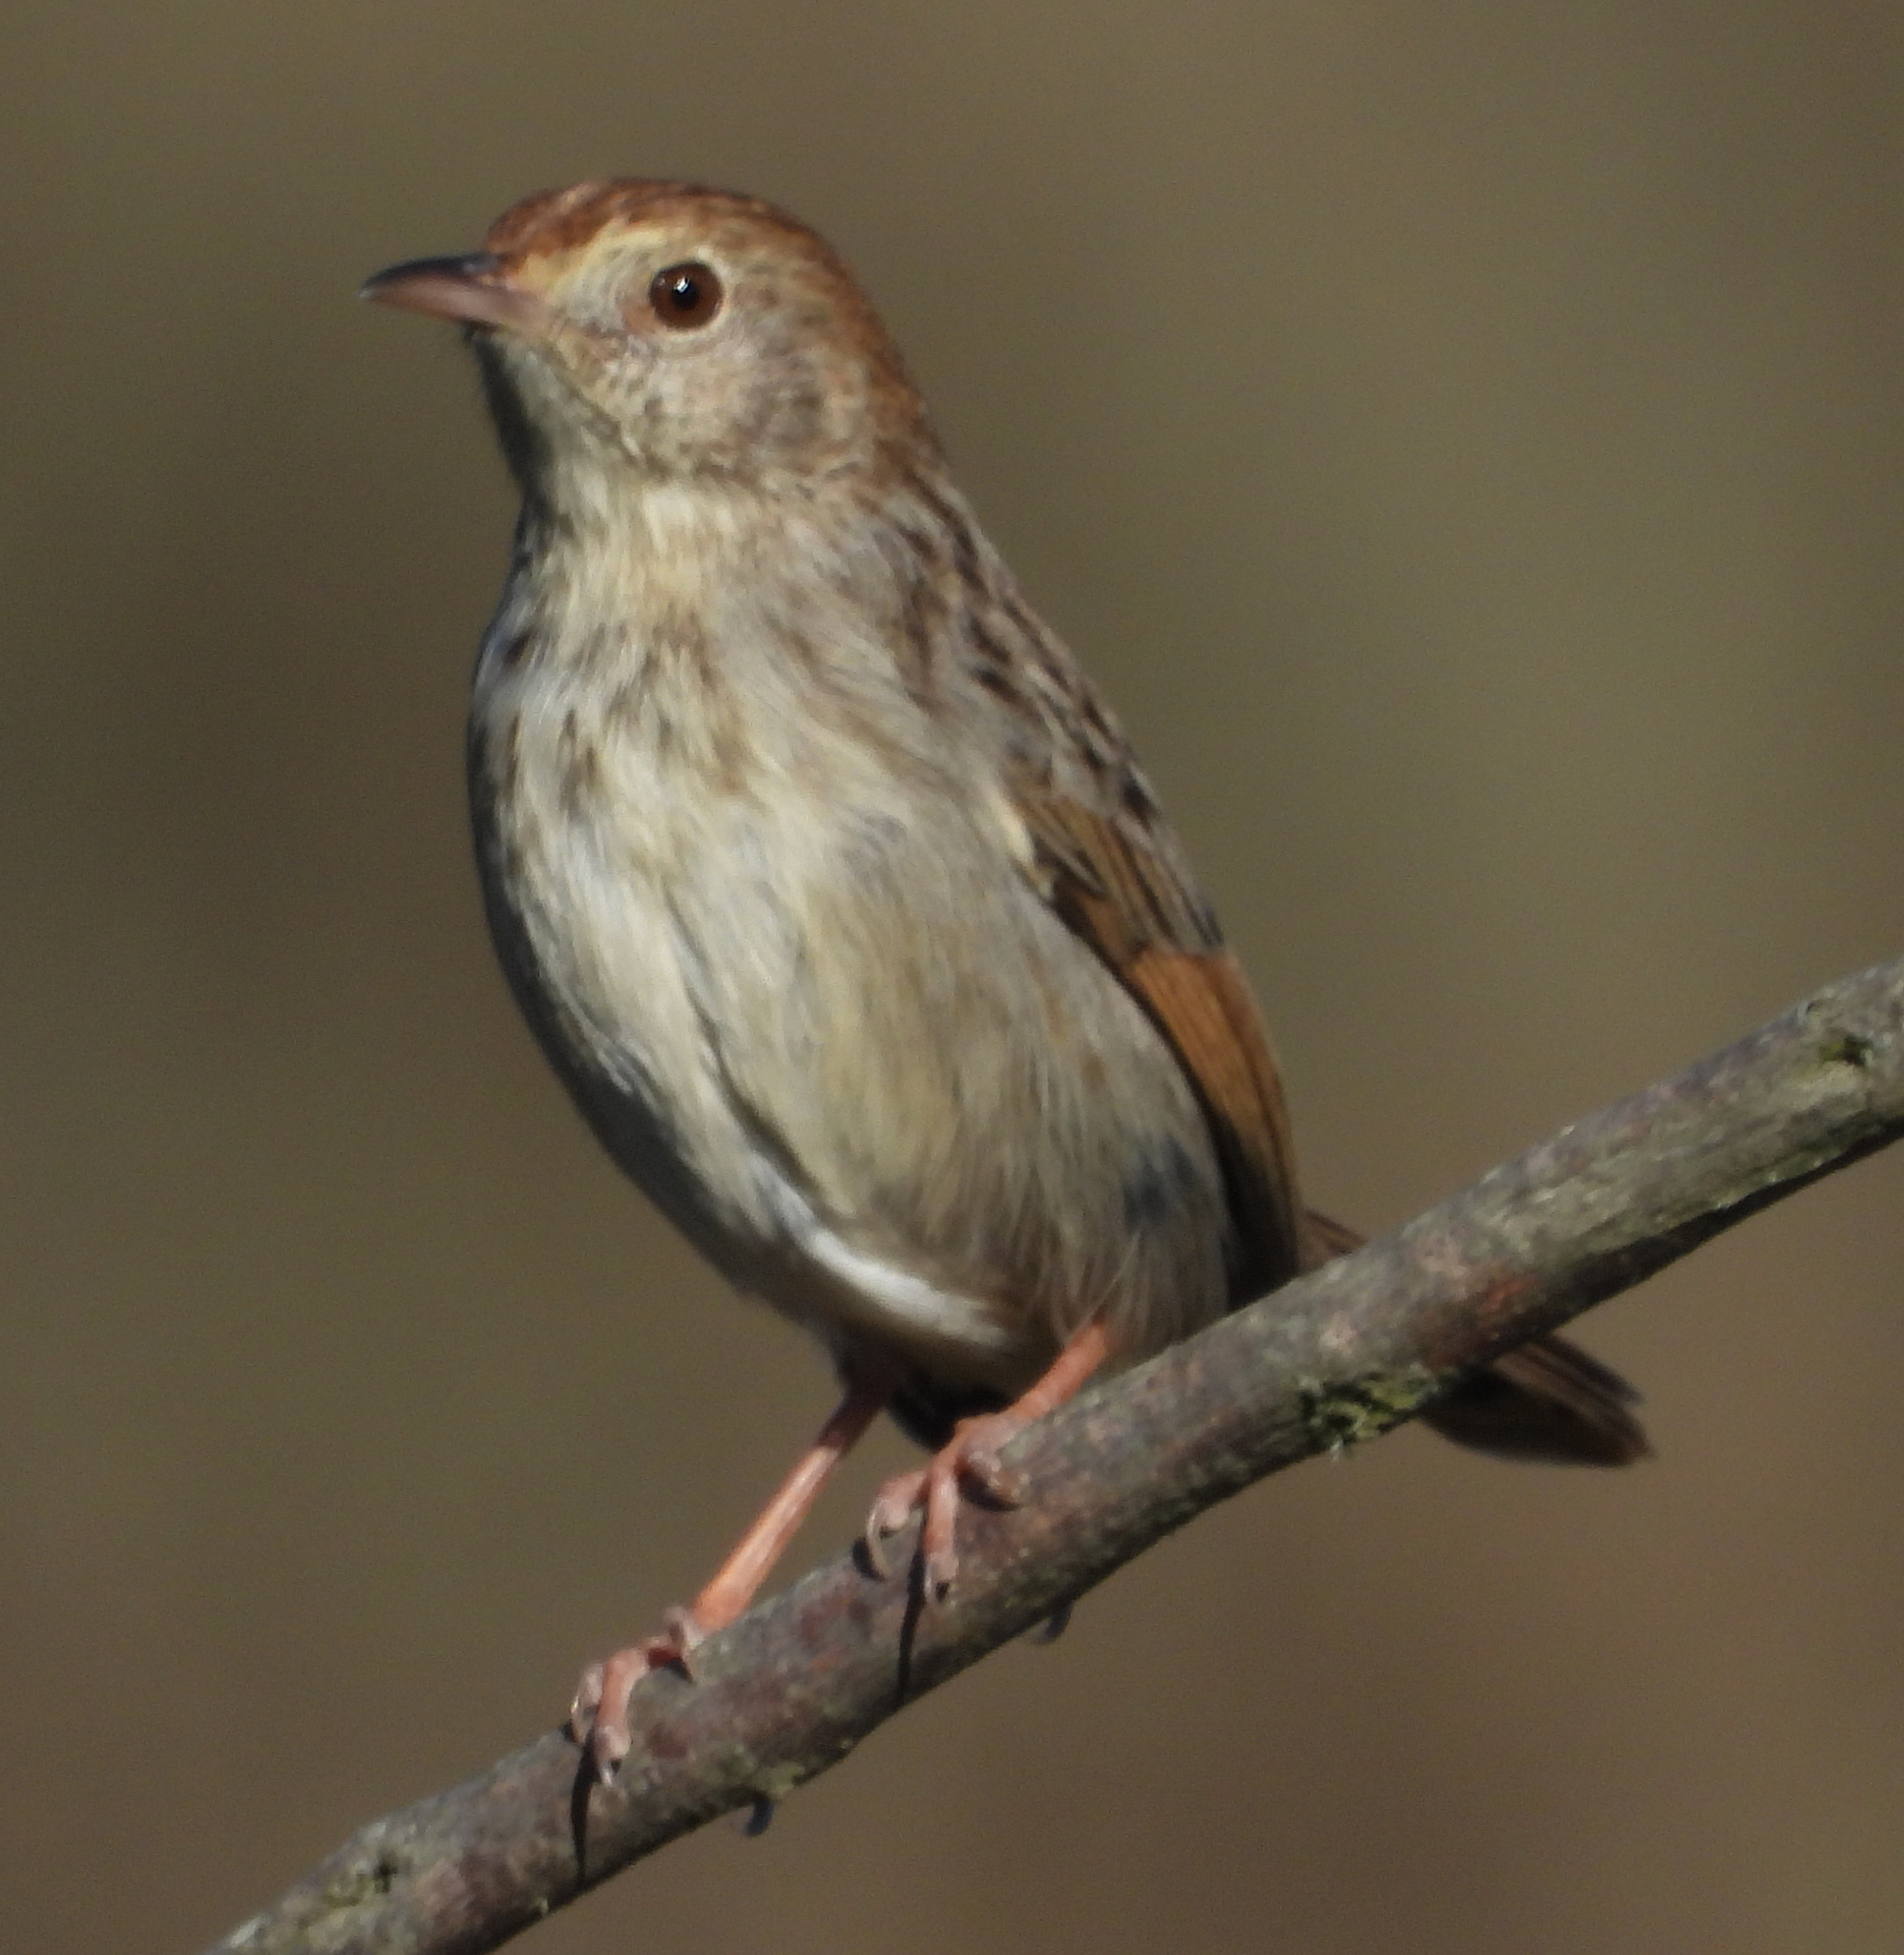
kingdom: Animalia
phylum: Chordata
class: Aves
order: Passeriformes
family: Cisticolidae
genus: Cisticola
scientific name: Cisticola subruficapilla
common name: Grey-backed cisticola
